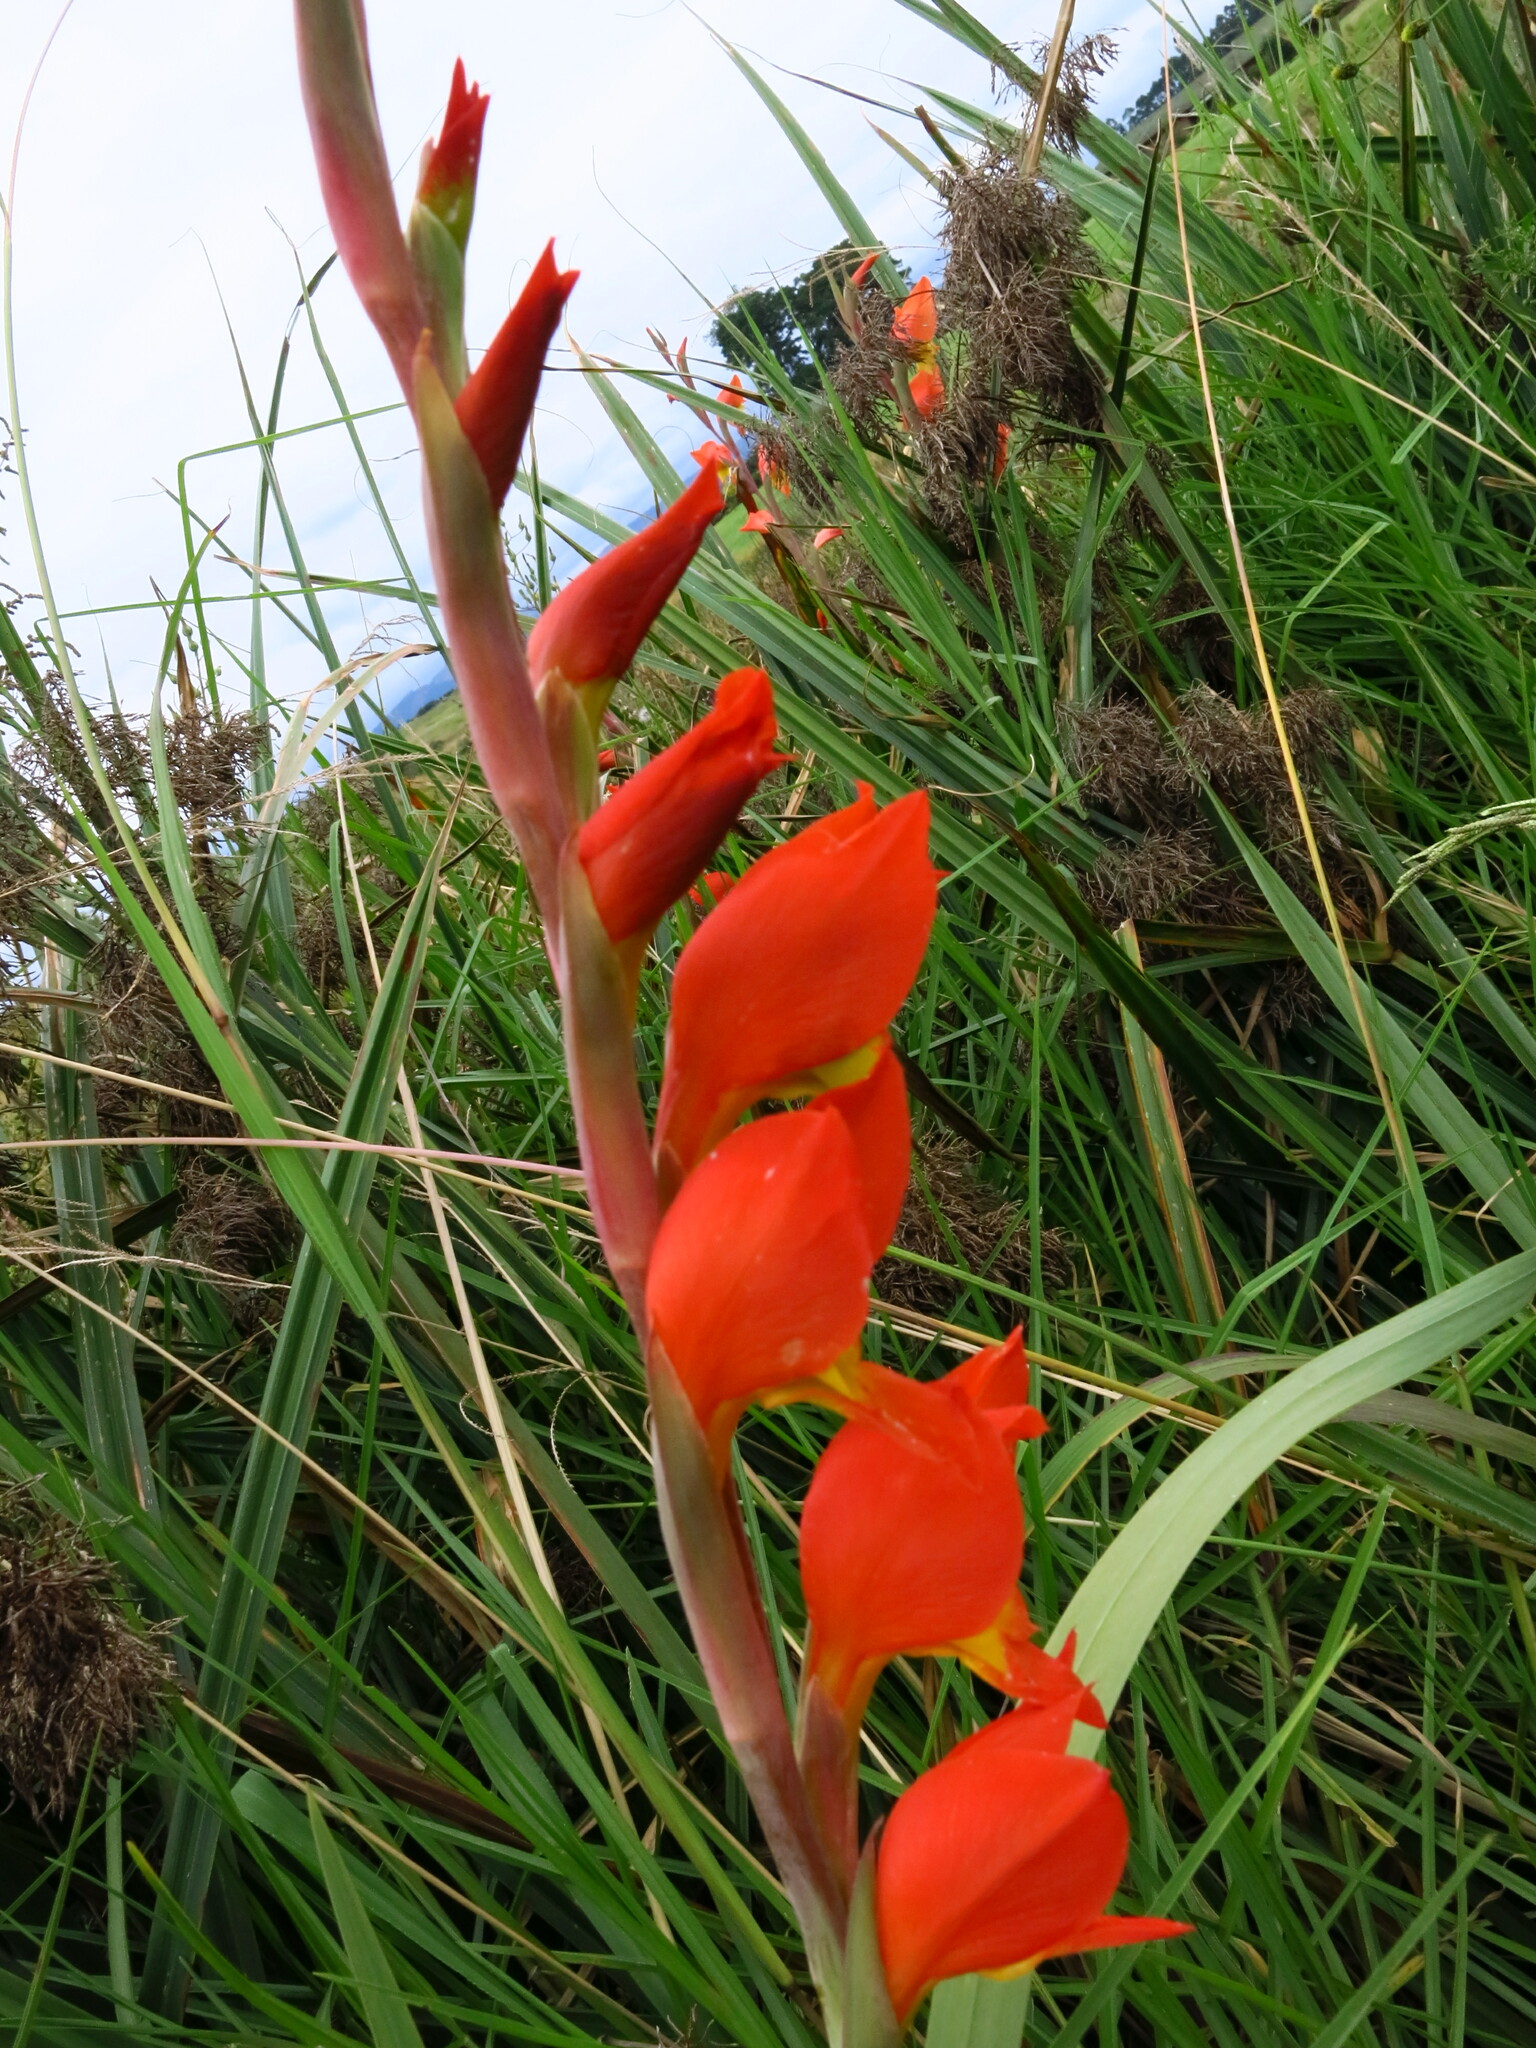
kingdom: Plantae
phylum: Tracheophyta
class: Liliopsida
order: Asparagales
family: Iridaceae
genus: Gladiolus
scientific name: Gladiolus dalenii
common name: Cornflag
